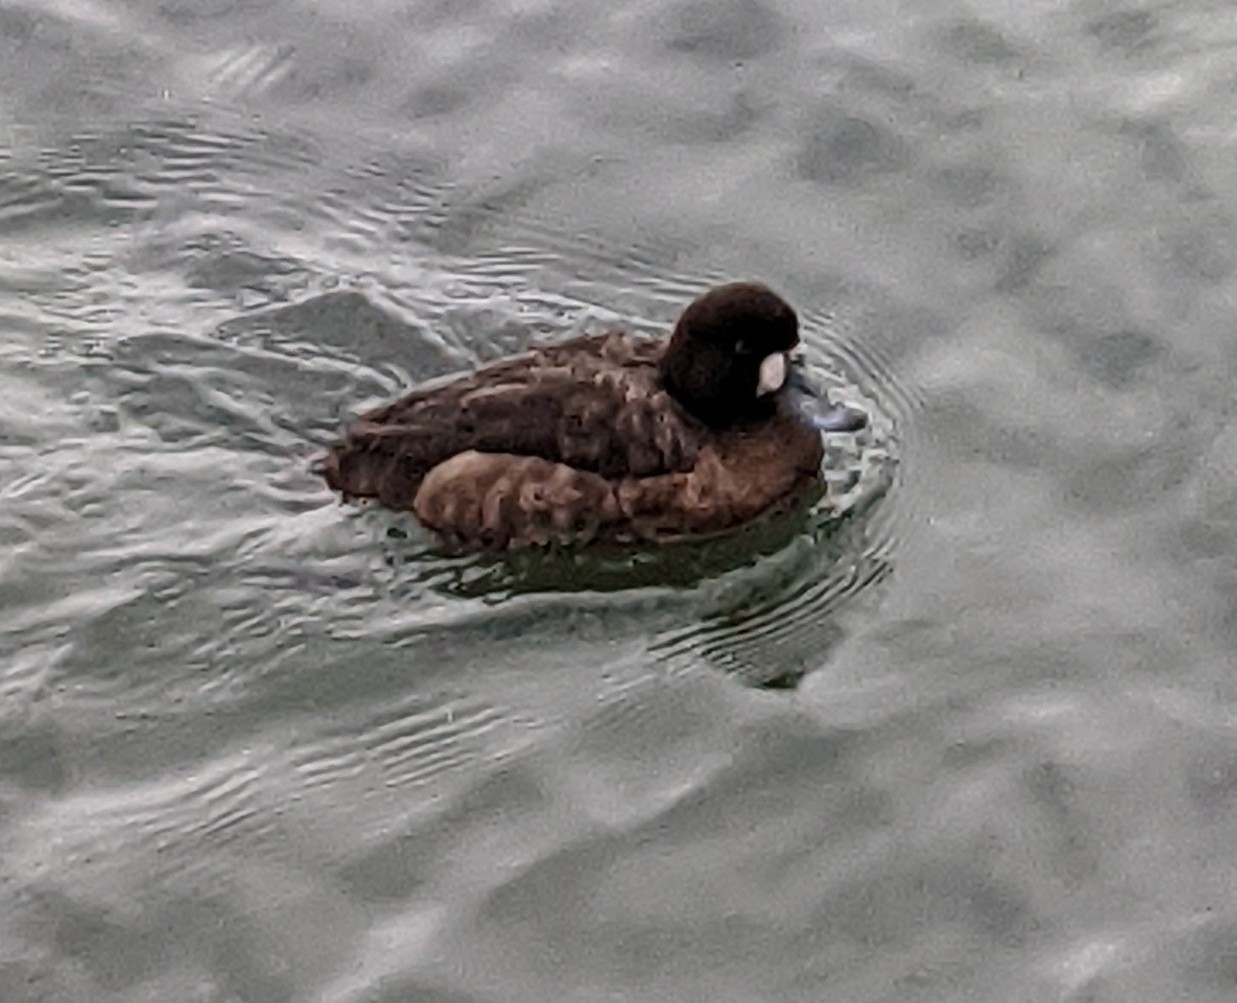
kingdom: Animalia
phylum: Chordata
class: Aves
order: Anseriformes
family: Anatidae
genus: Aythya
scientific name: Aythya marila
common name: Greater scaup
